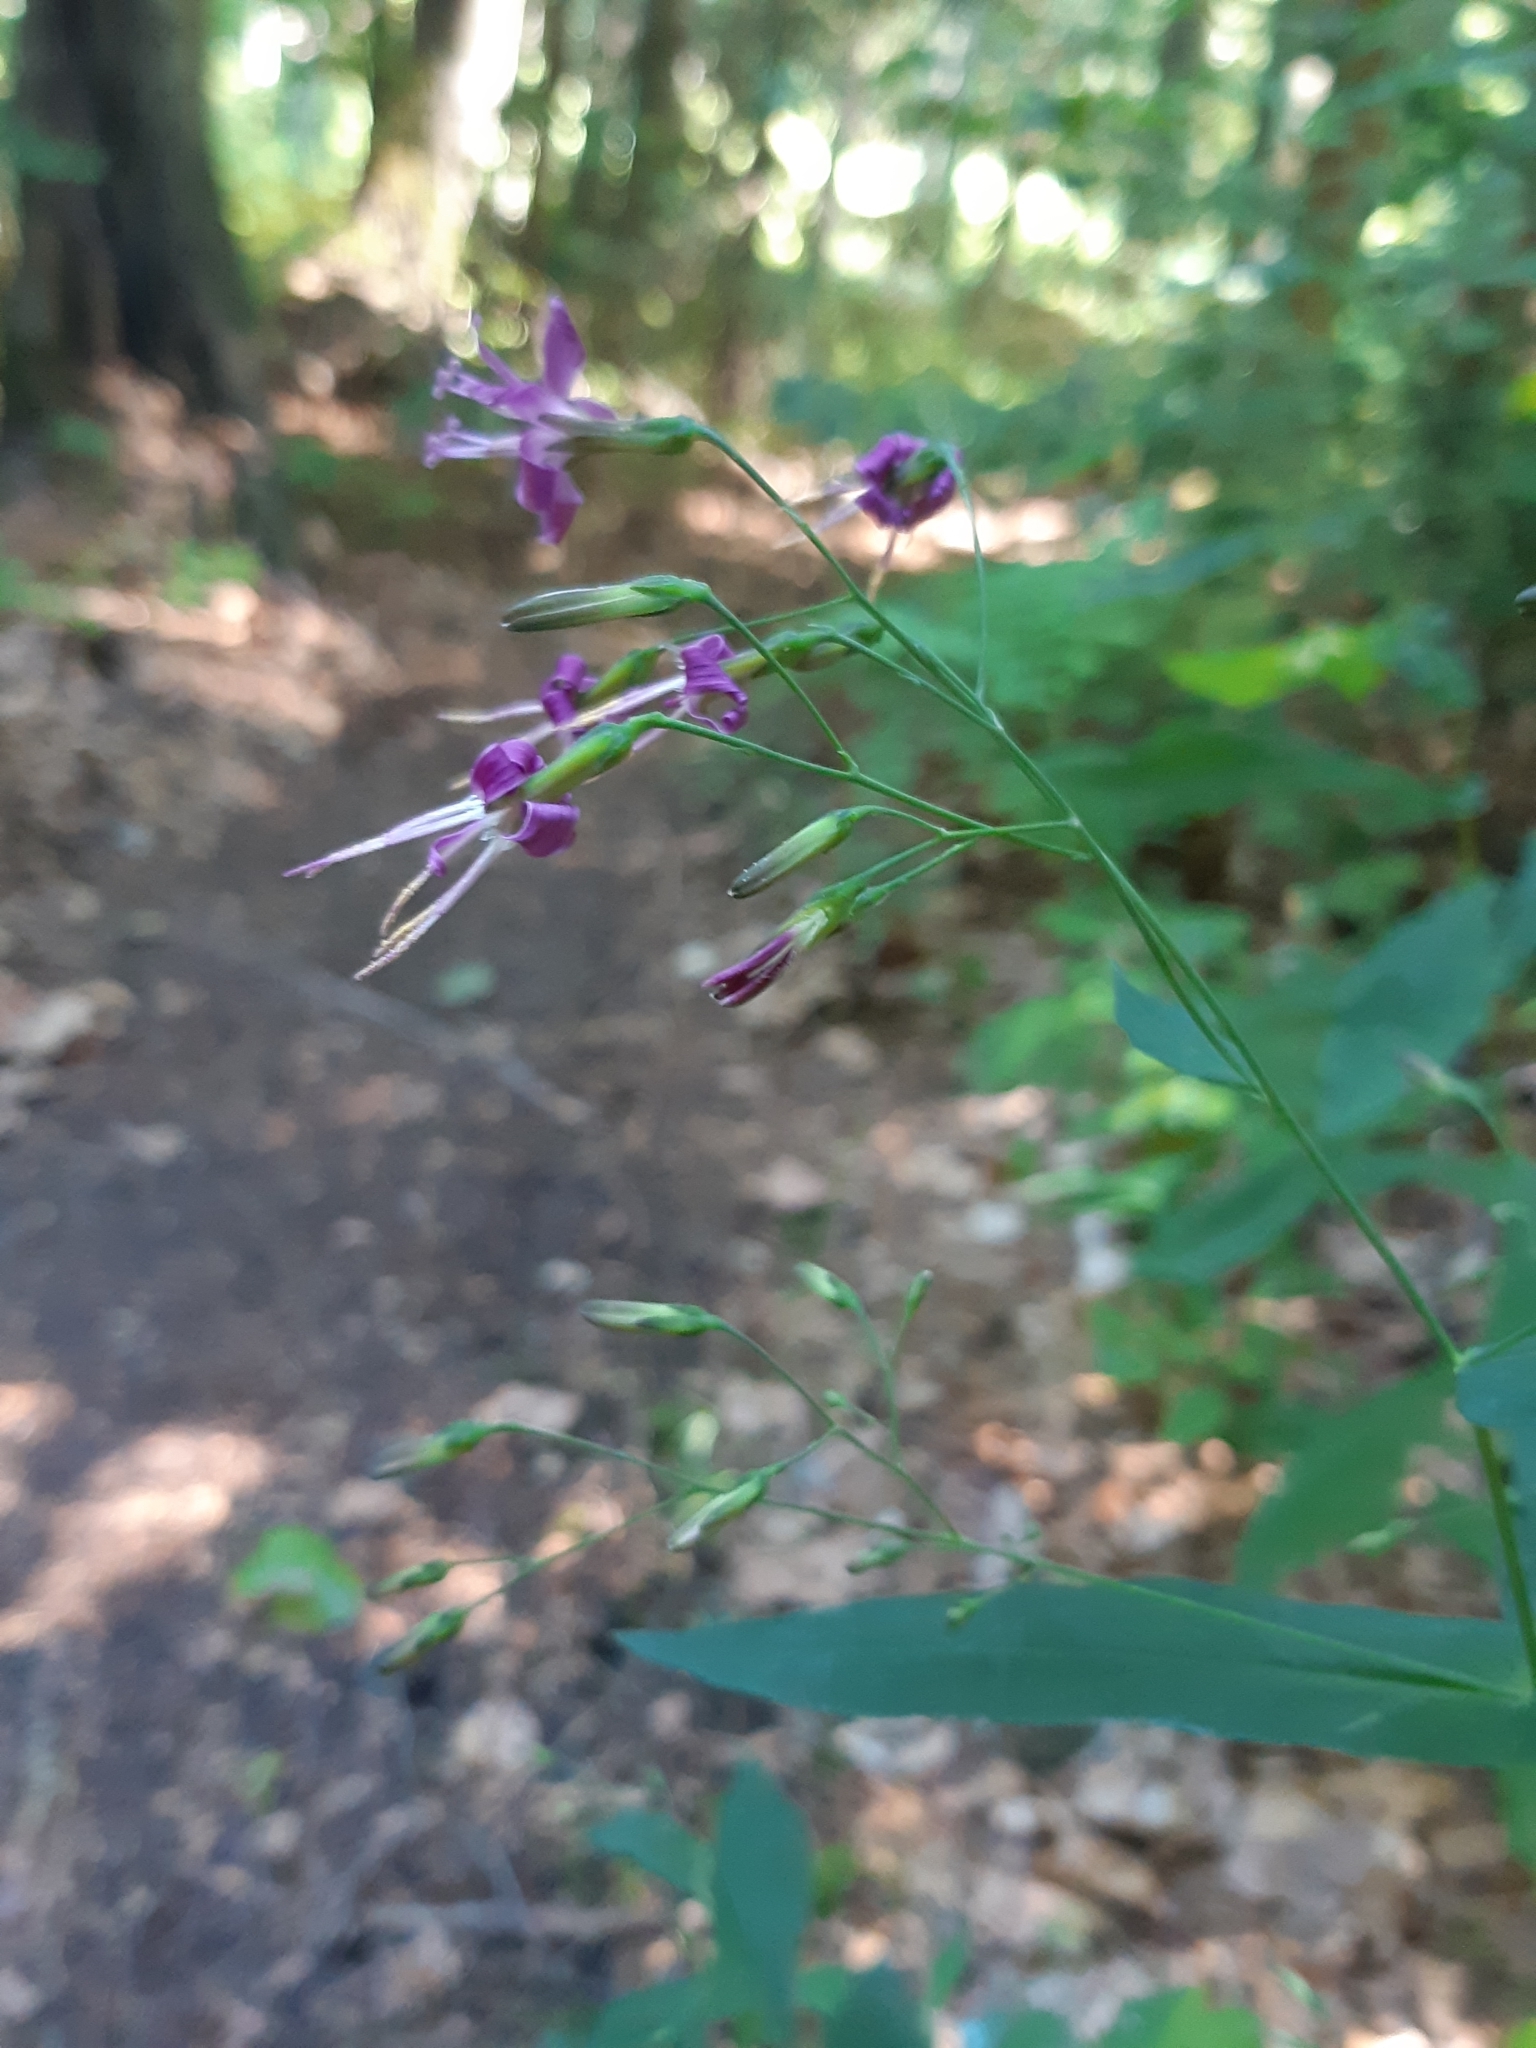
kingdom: Plantae
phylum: Tracheophyta
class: Magnoliopsida
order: Asterales
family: Asteraceae
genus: Prenanthes
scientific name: Prenanthes purpurea
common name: Purple lettuce
